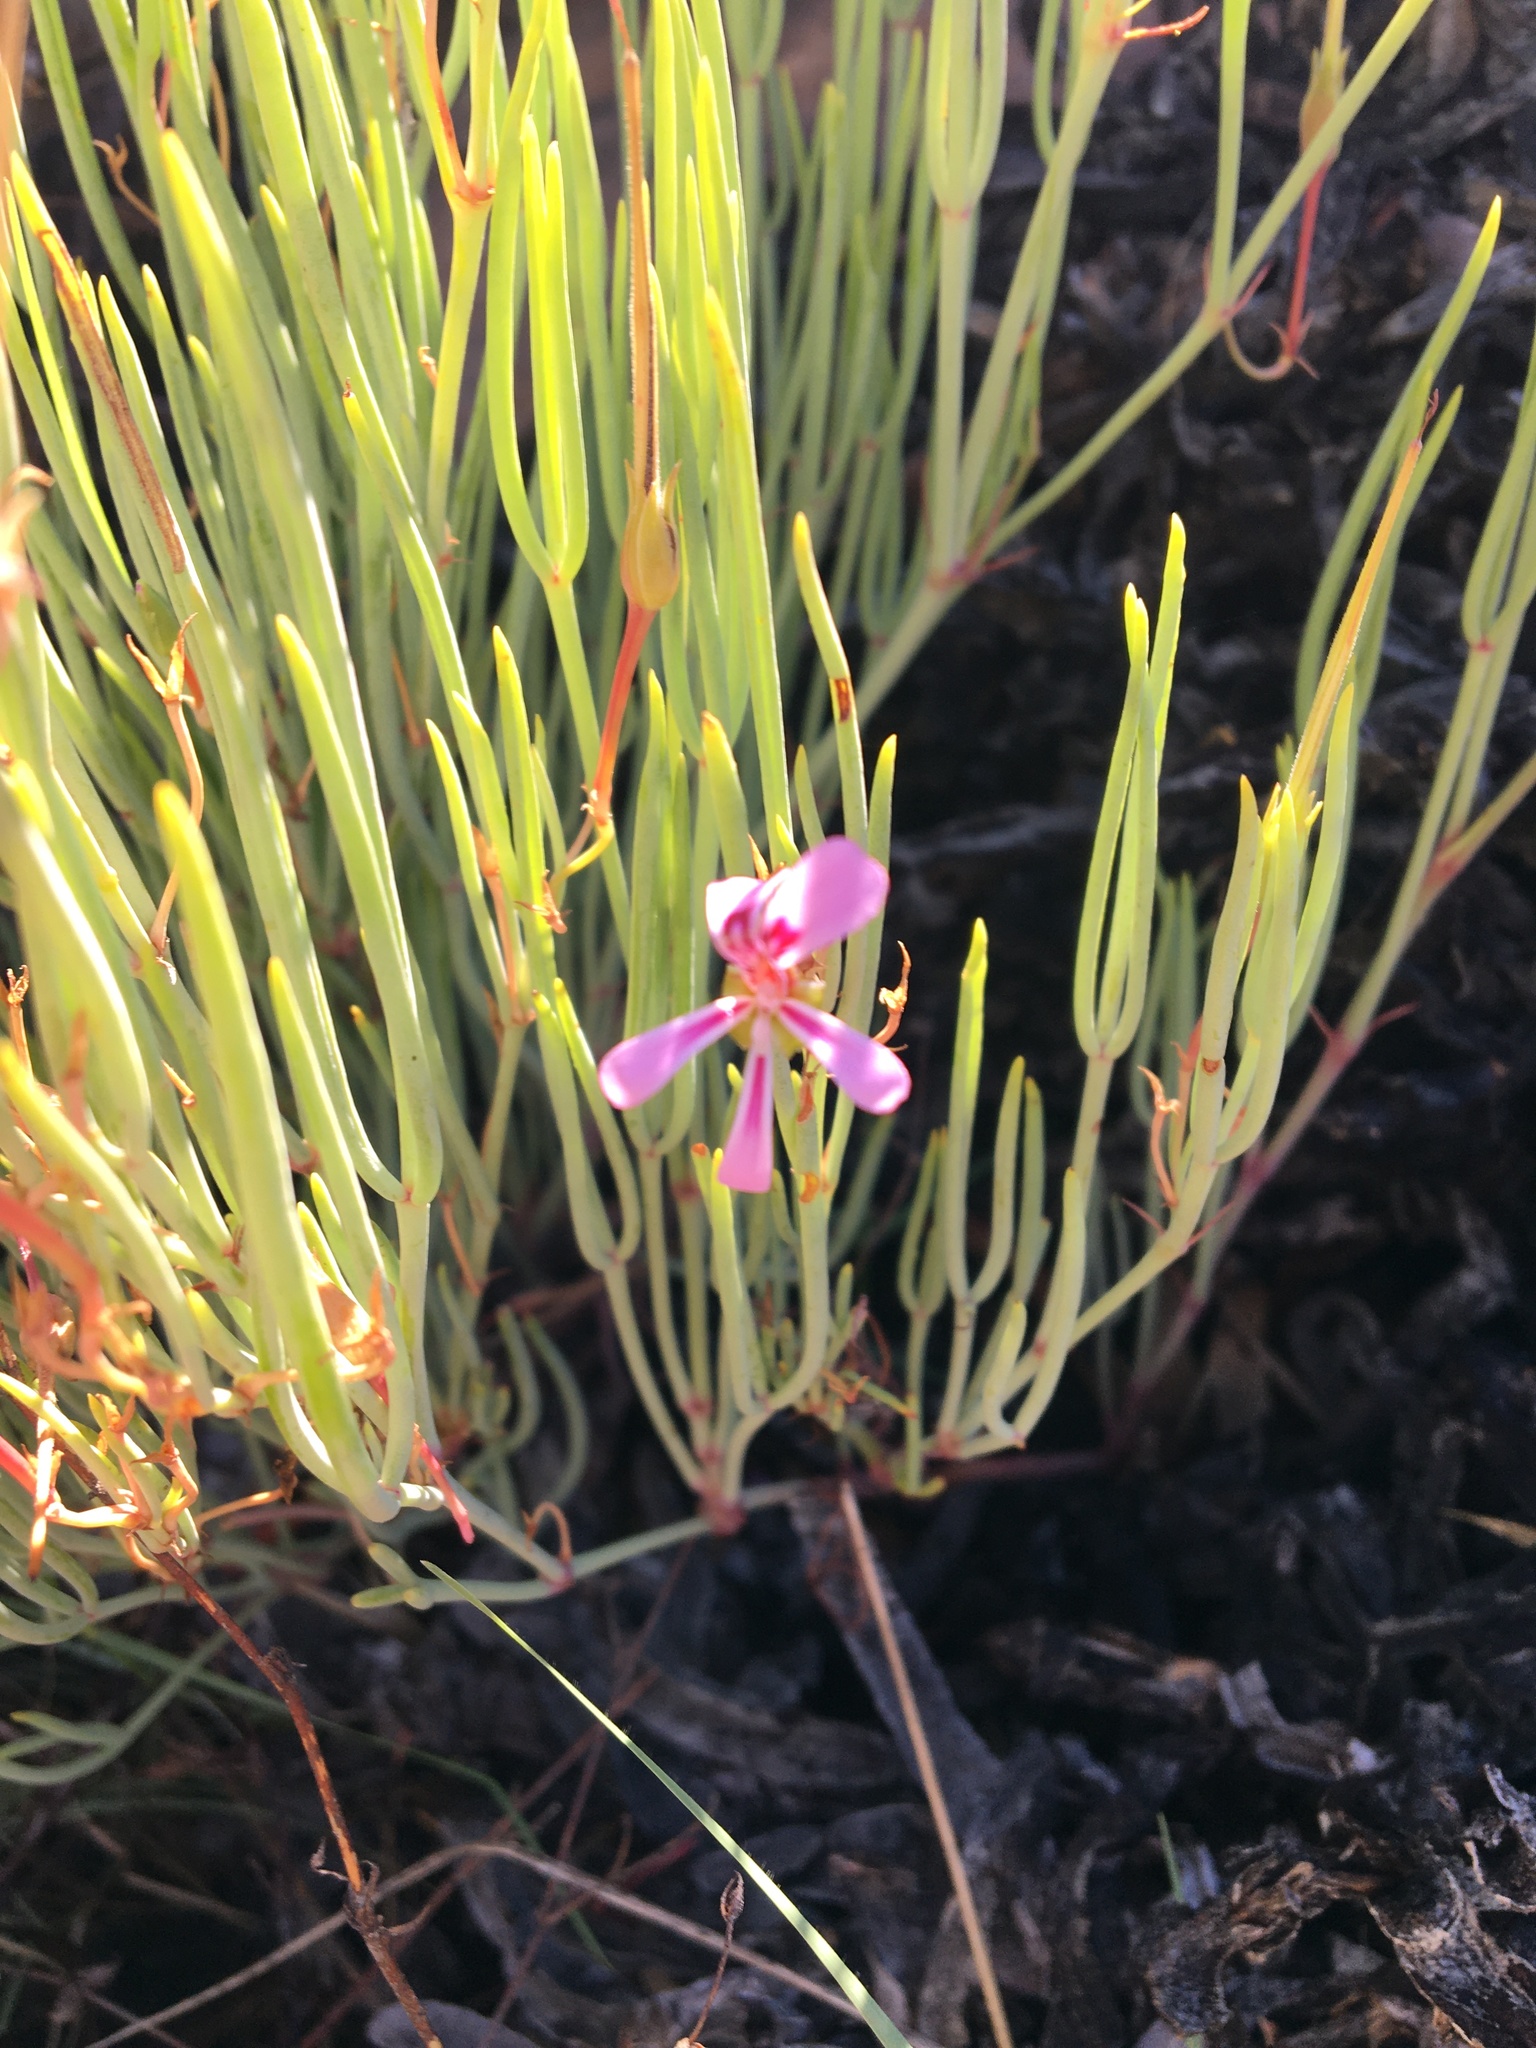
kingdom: Plantae
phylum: Tracheophyta
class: Magnoliopsida
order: Geraniales
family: Geraniaceae
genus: Pelargonium
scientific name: Pelargonium laevigatum
